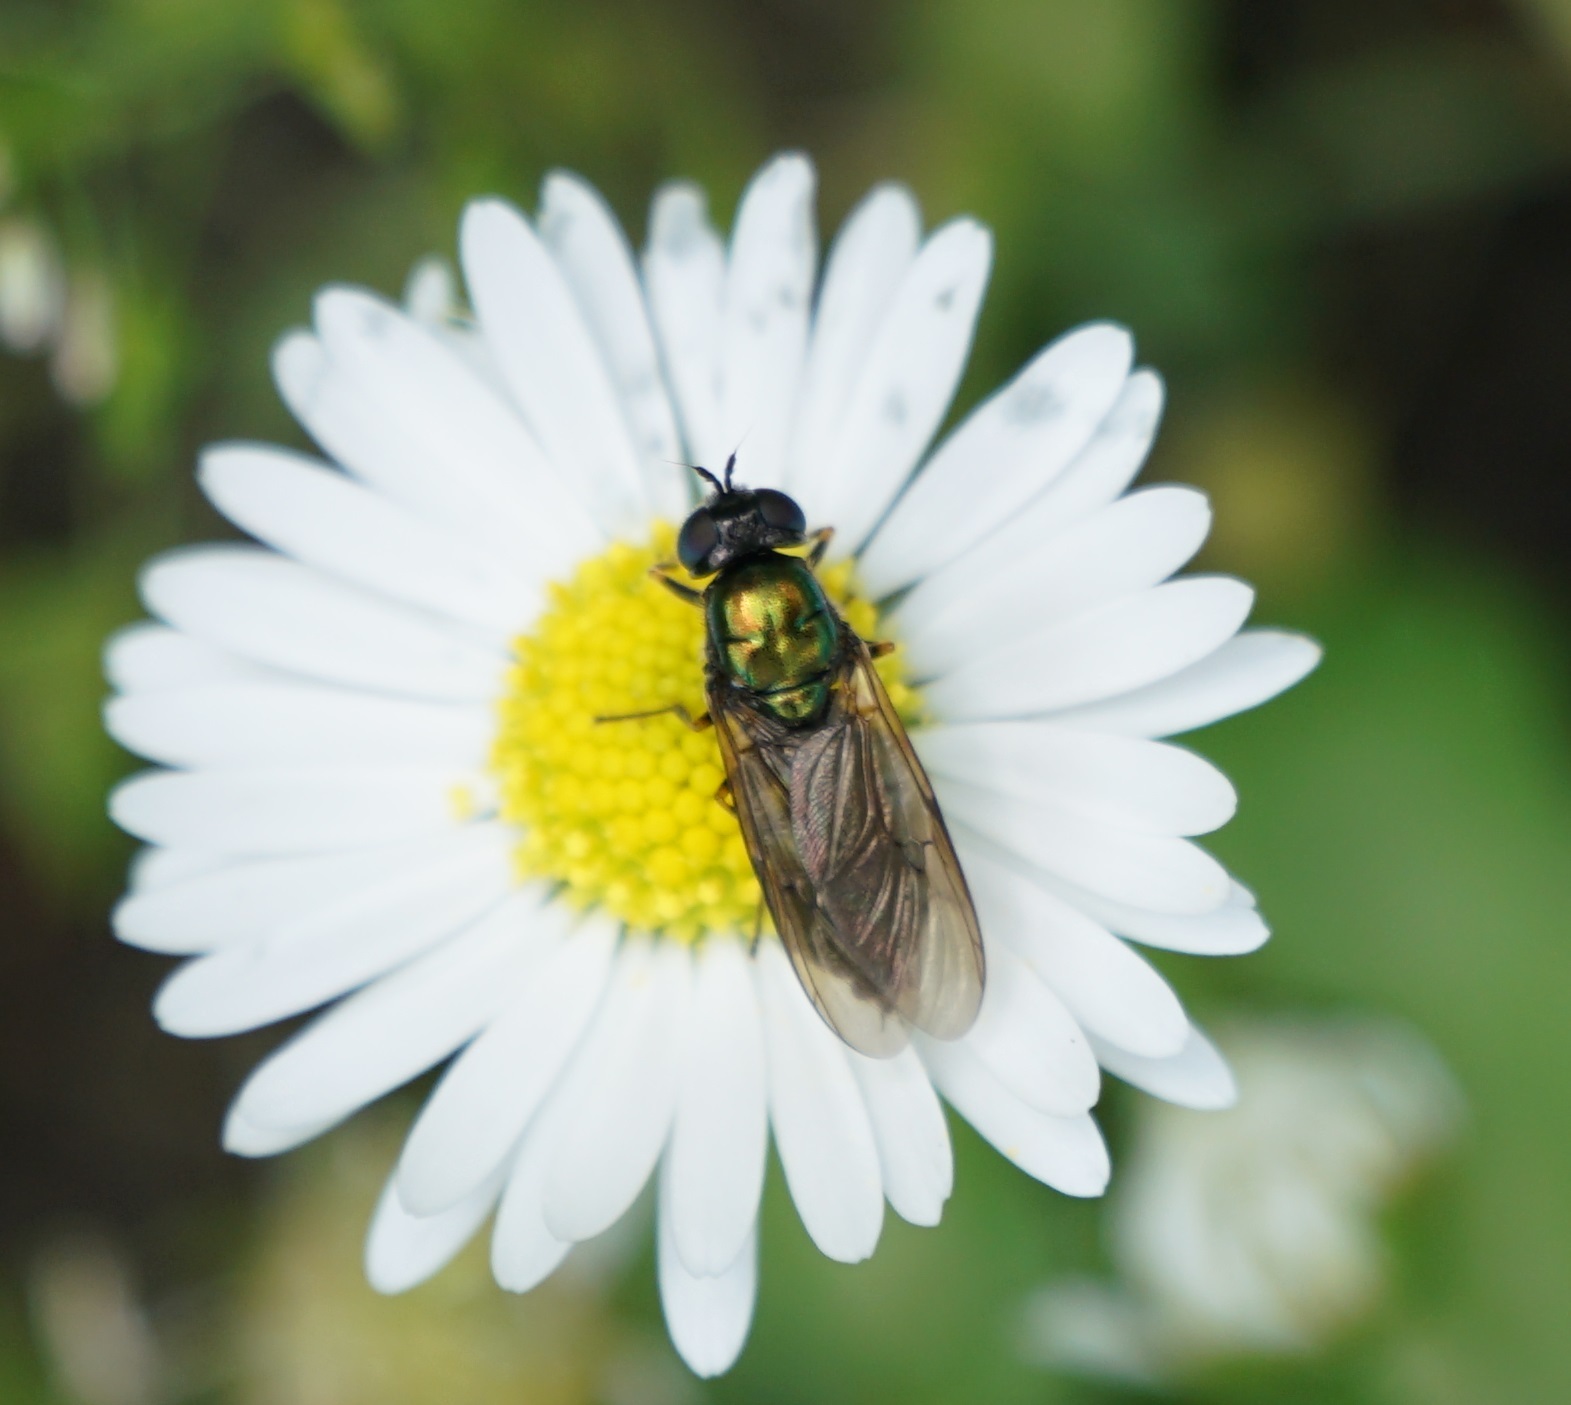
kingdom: Animalia
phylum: Arthropoda
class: Insecta
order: Diptera
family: Stratiomyidae
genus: Chloromyia
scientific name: Chloromyia formosa
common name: Soldier fly
